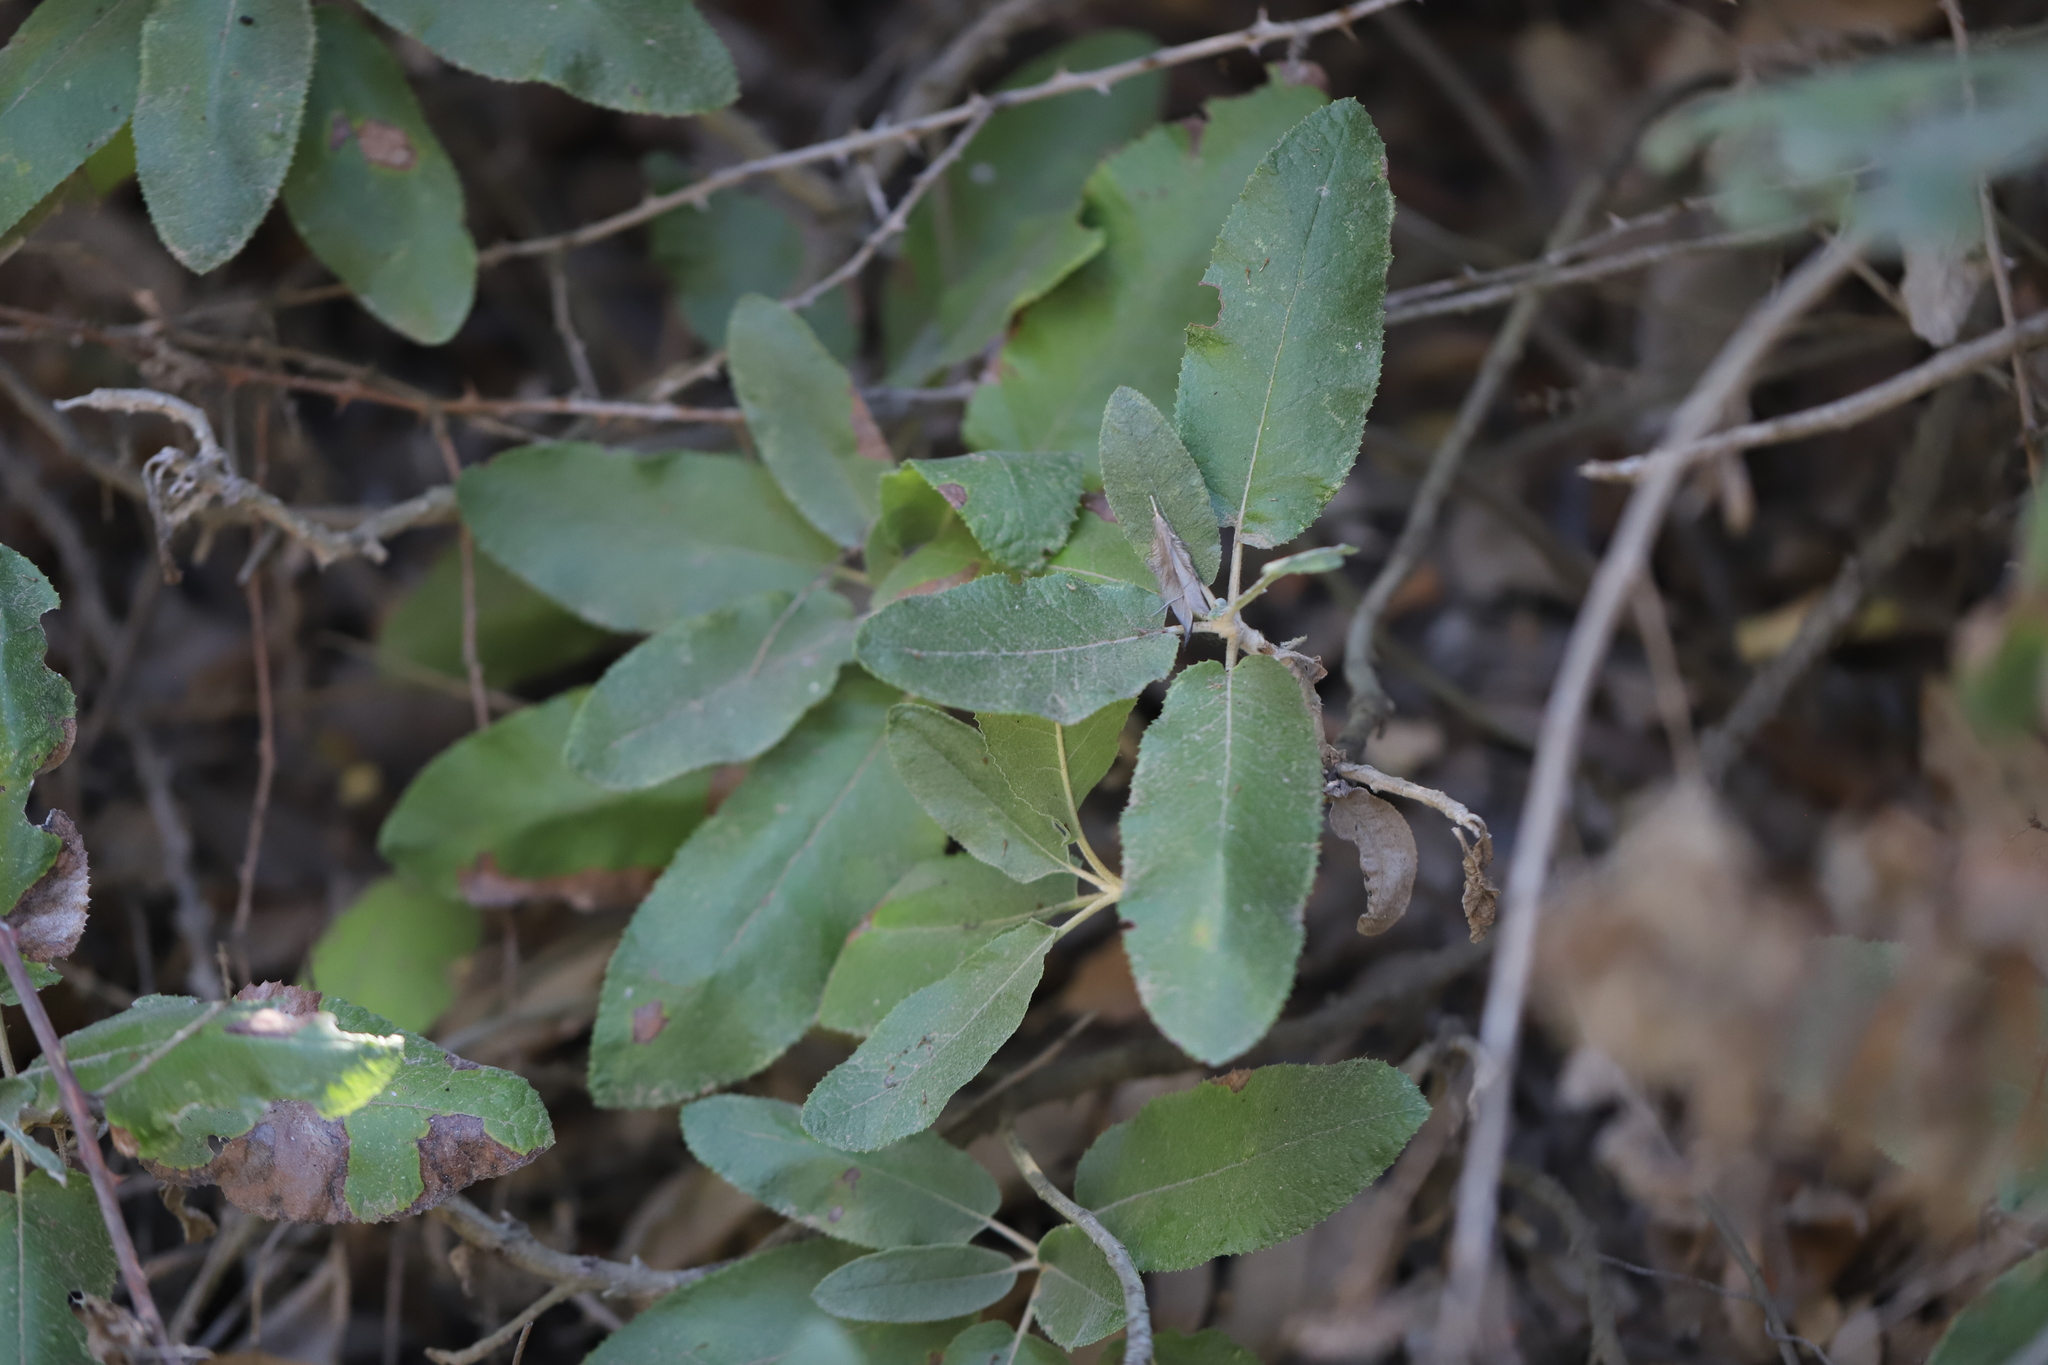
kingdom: Plantae
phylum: Tracheophyta
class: Magnoliopsida
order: Asterales
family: Asteraceae
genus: Acrisione
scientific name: Acrisione denticulata
